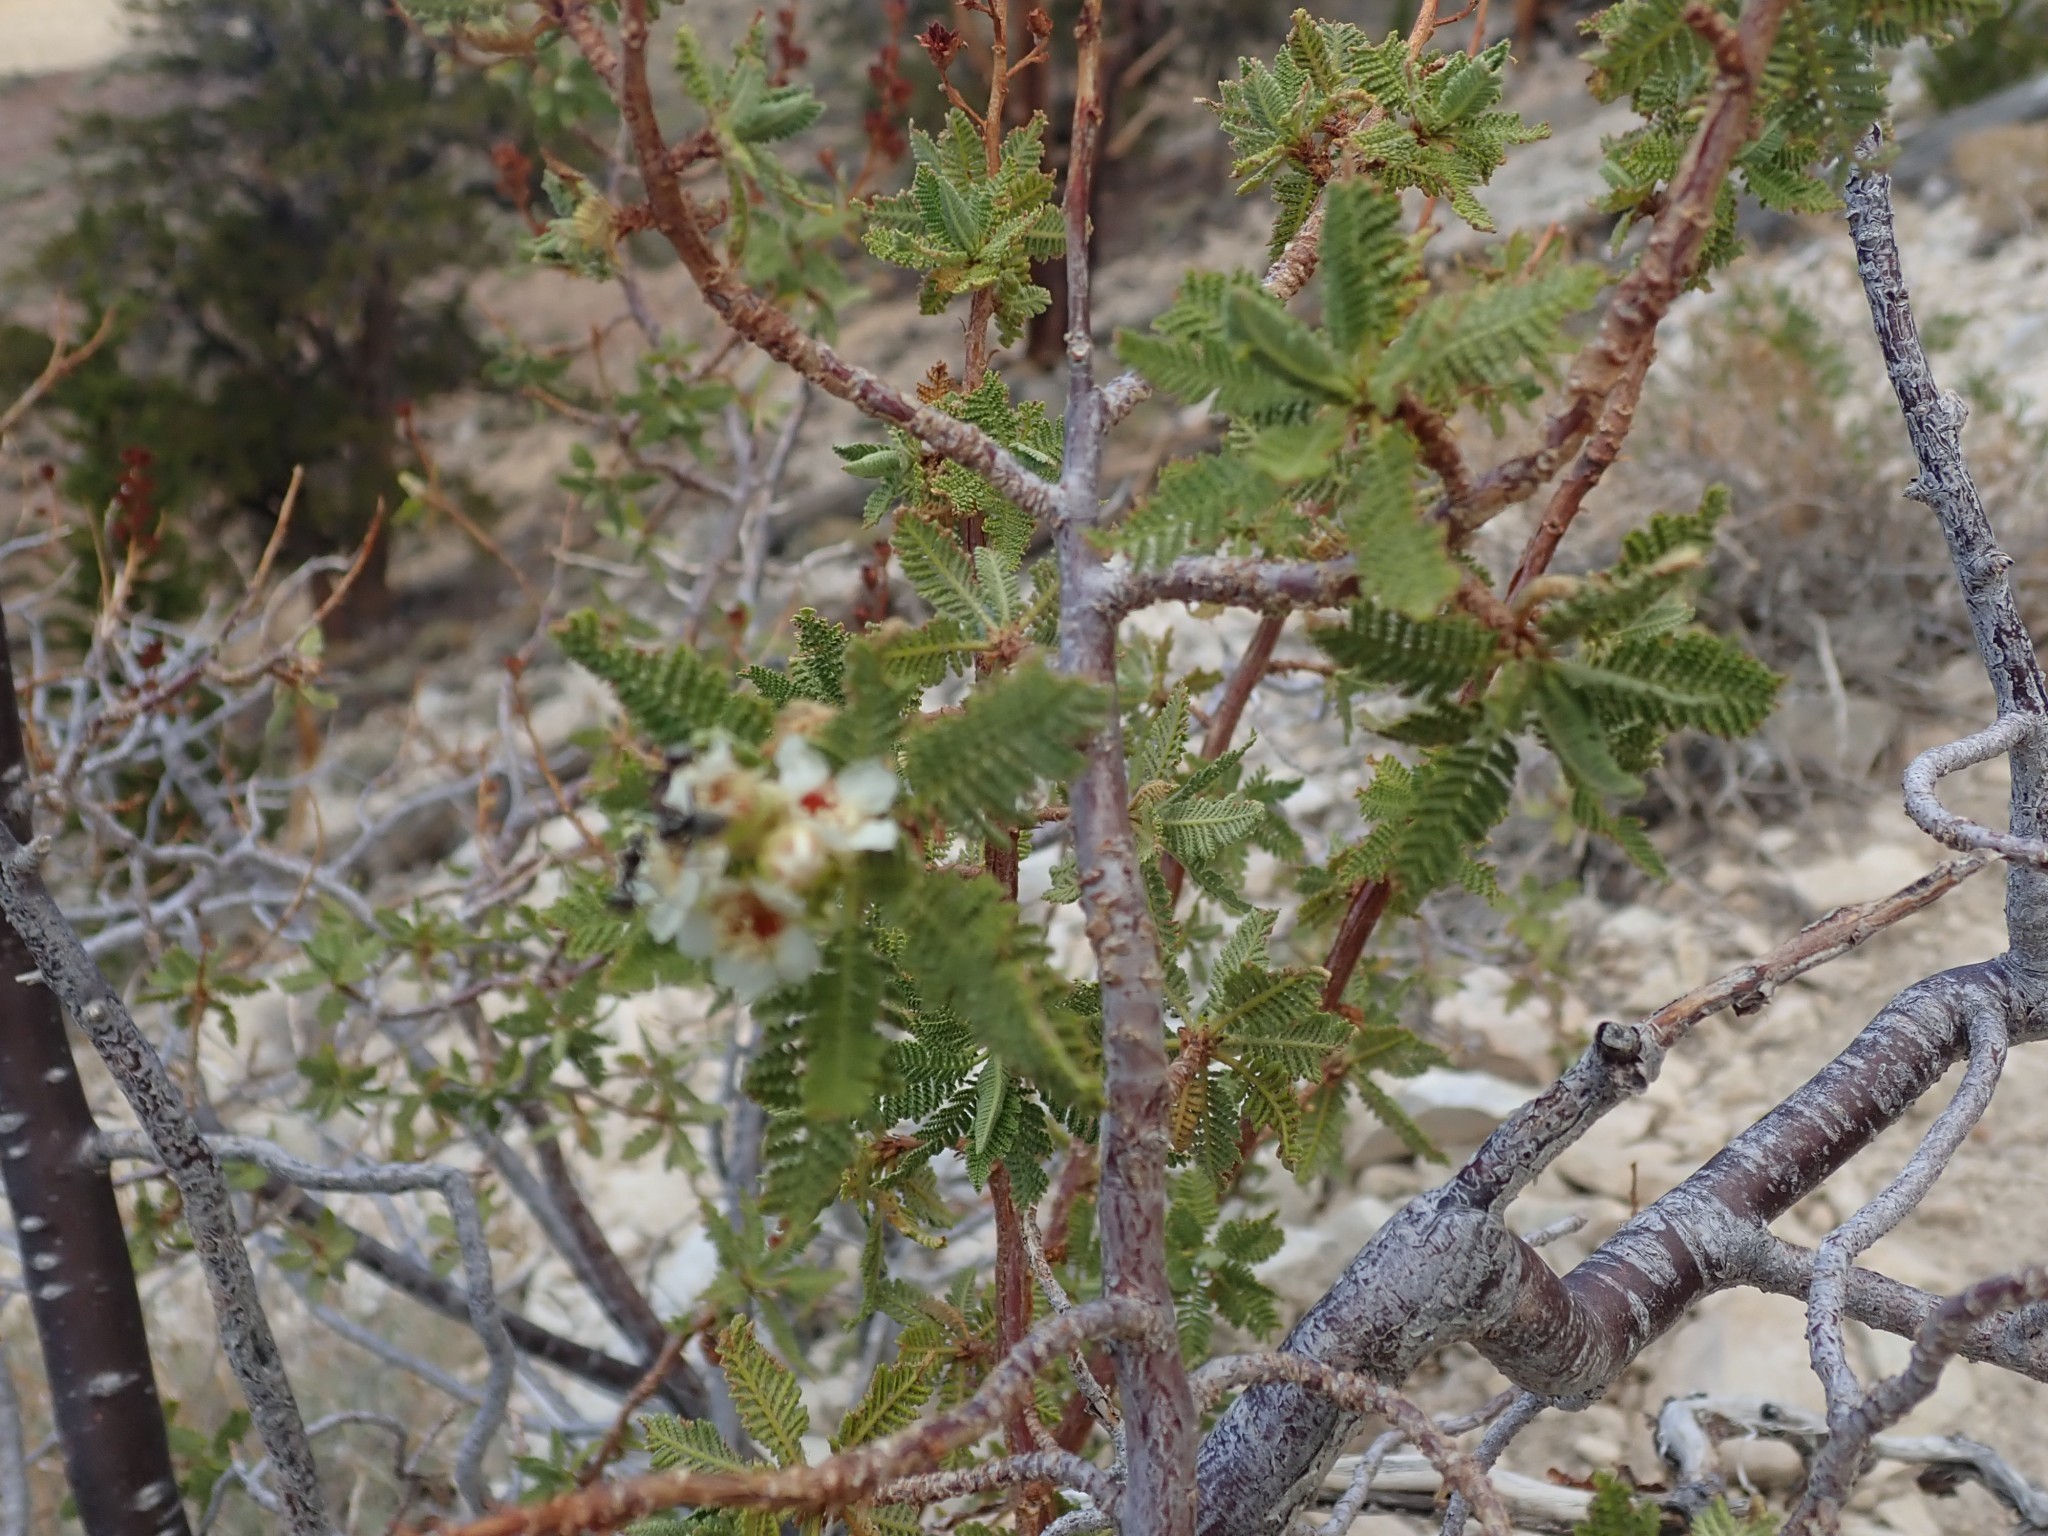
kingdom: Plantae
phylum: Tracheophyta
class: Magnoliopsida
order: Rosales
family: Rosaceae
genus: Chamaebatiaria
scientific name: Chamaebatiaria millefolium
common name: Fernbush
